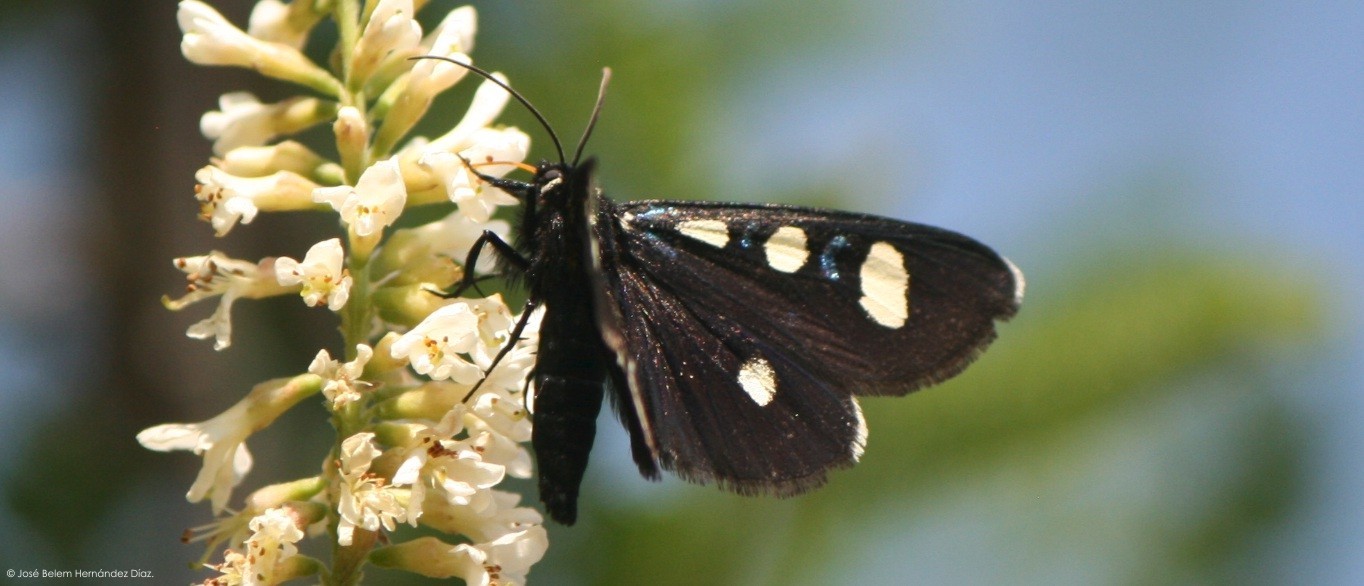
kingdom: Animalia
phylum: Arthropoda
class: Insecta
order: Lepidoptera
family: Noctuidae
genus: Alypiodes
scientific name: Alypiodes bimaculata
